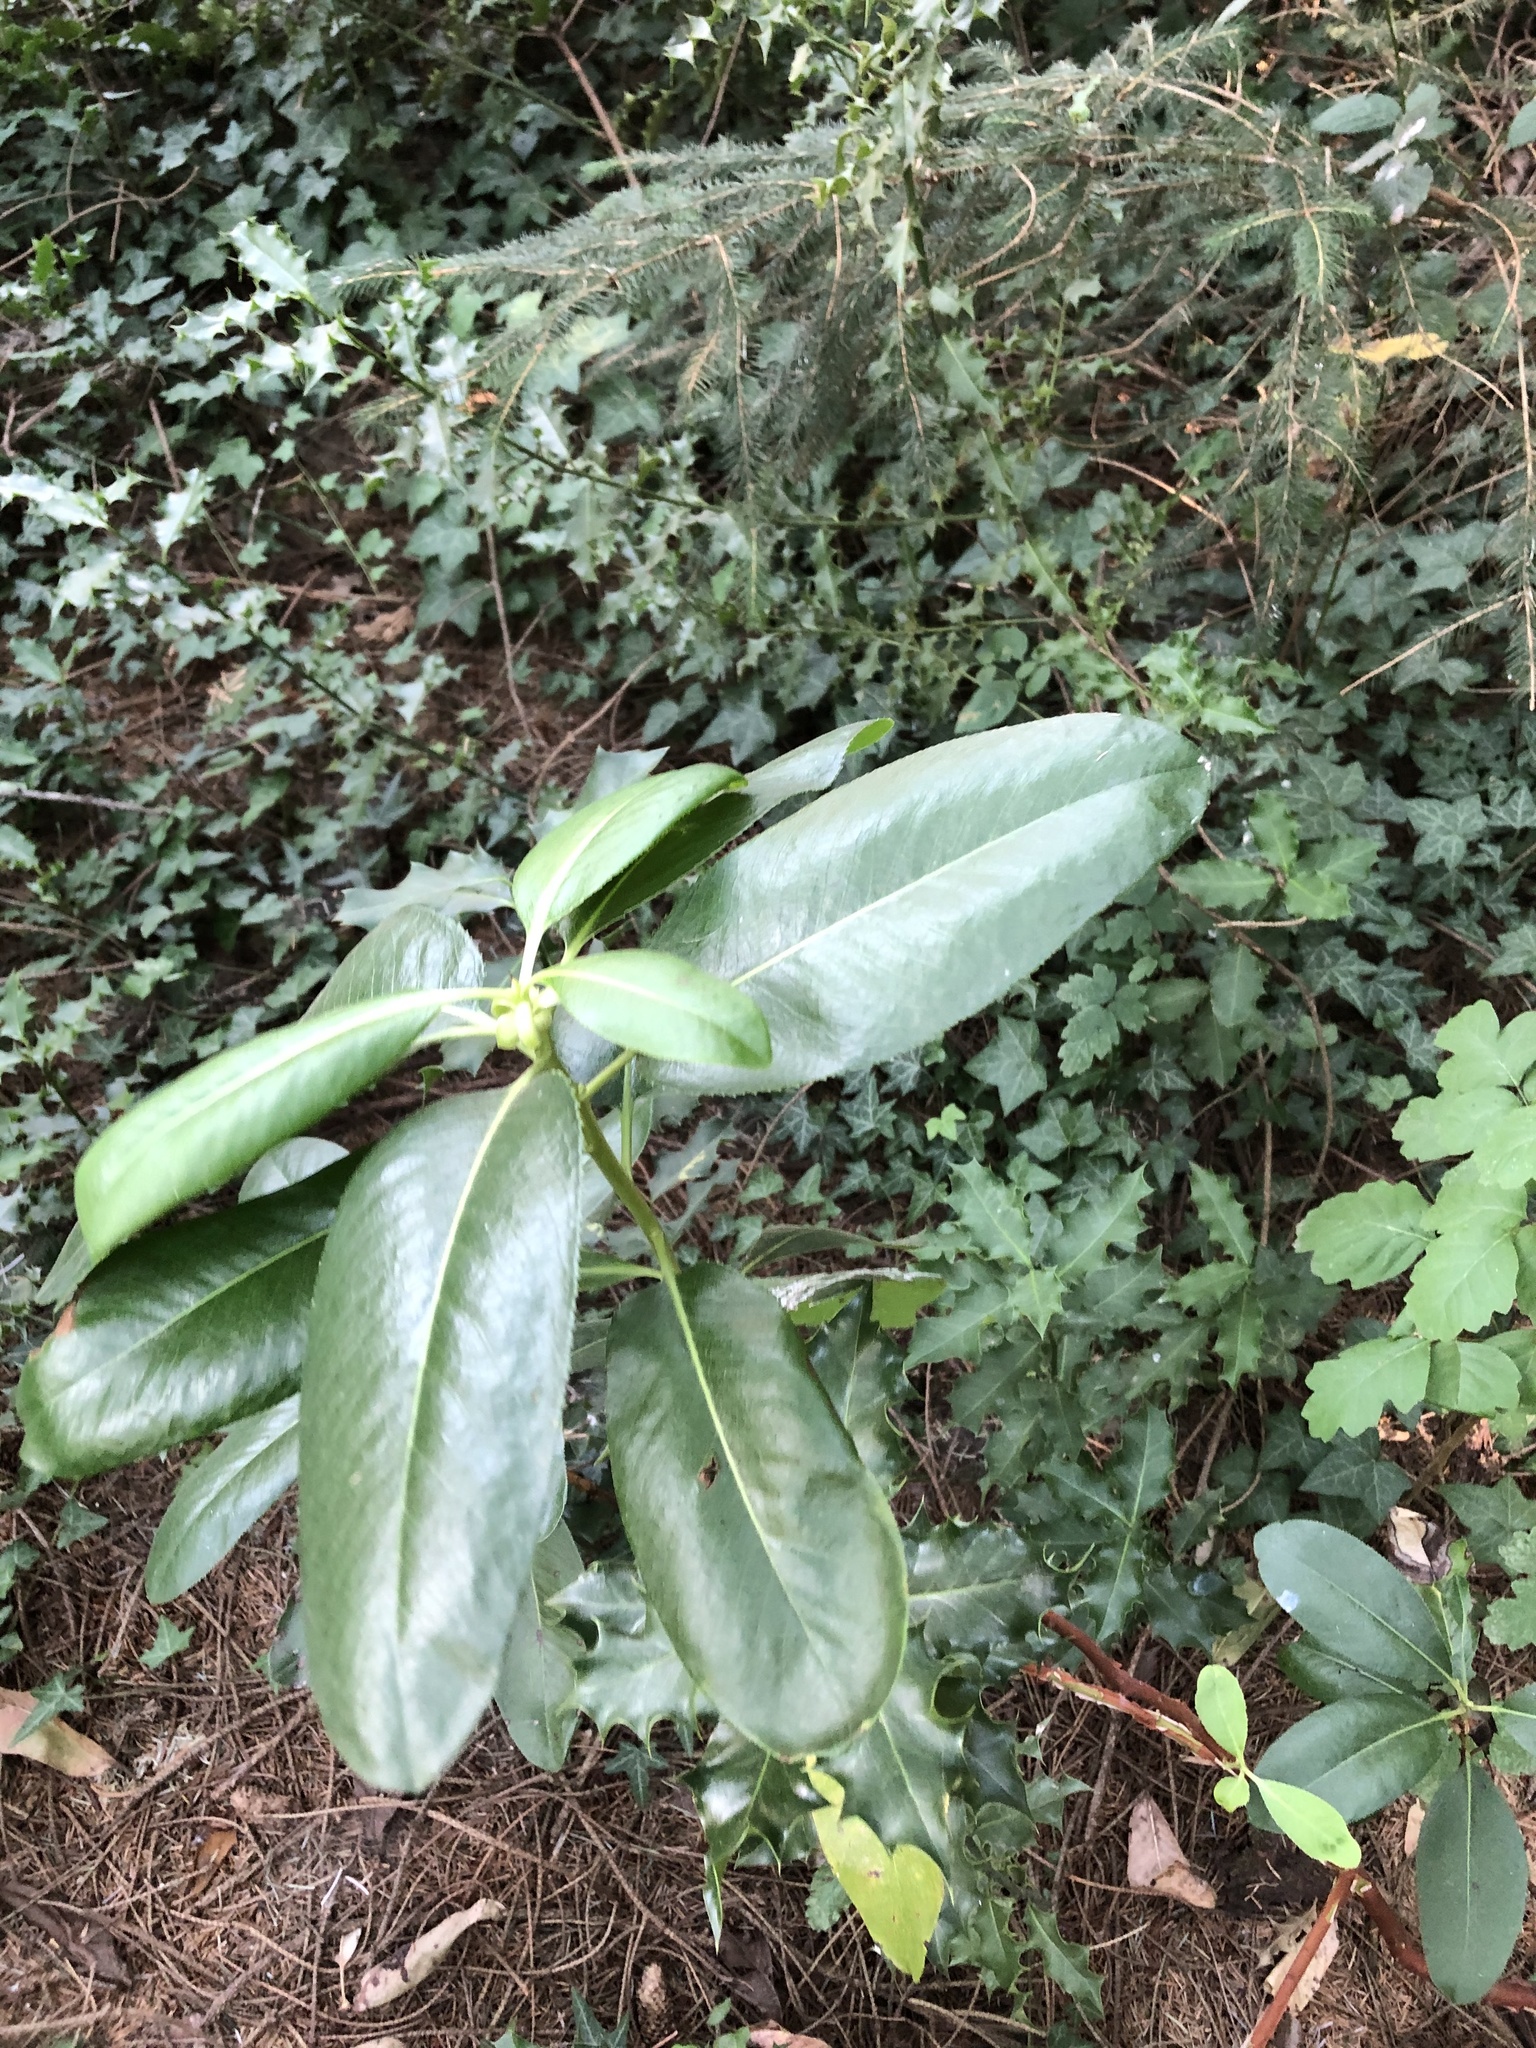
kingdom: Plantae
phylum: Tracheophyta
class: Magnoliopsida
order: Ericales
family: Ericaceae
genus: Arbutus
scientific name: Arbutus menziesii
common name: Pacific madrone
